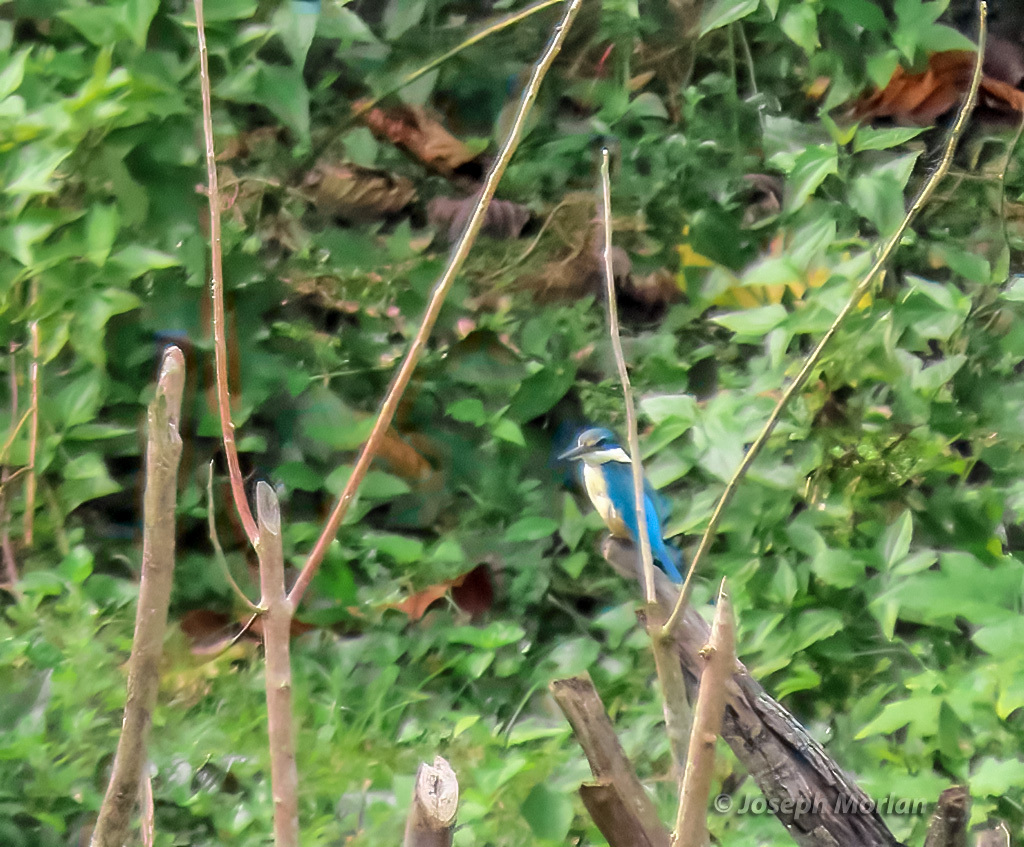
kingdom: Animalia
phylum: Chordata
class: Aves
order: Coraciiformes
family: Alcedinidae
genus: Todiramphus
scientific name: Todiramphus sanctus
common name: Sacred kingfisher
